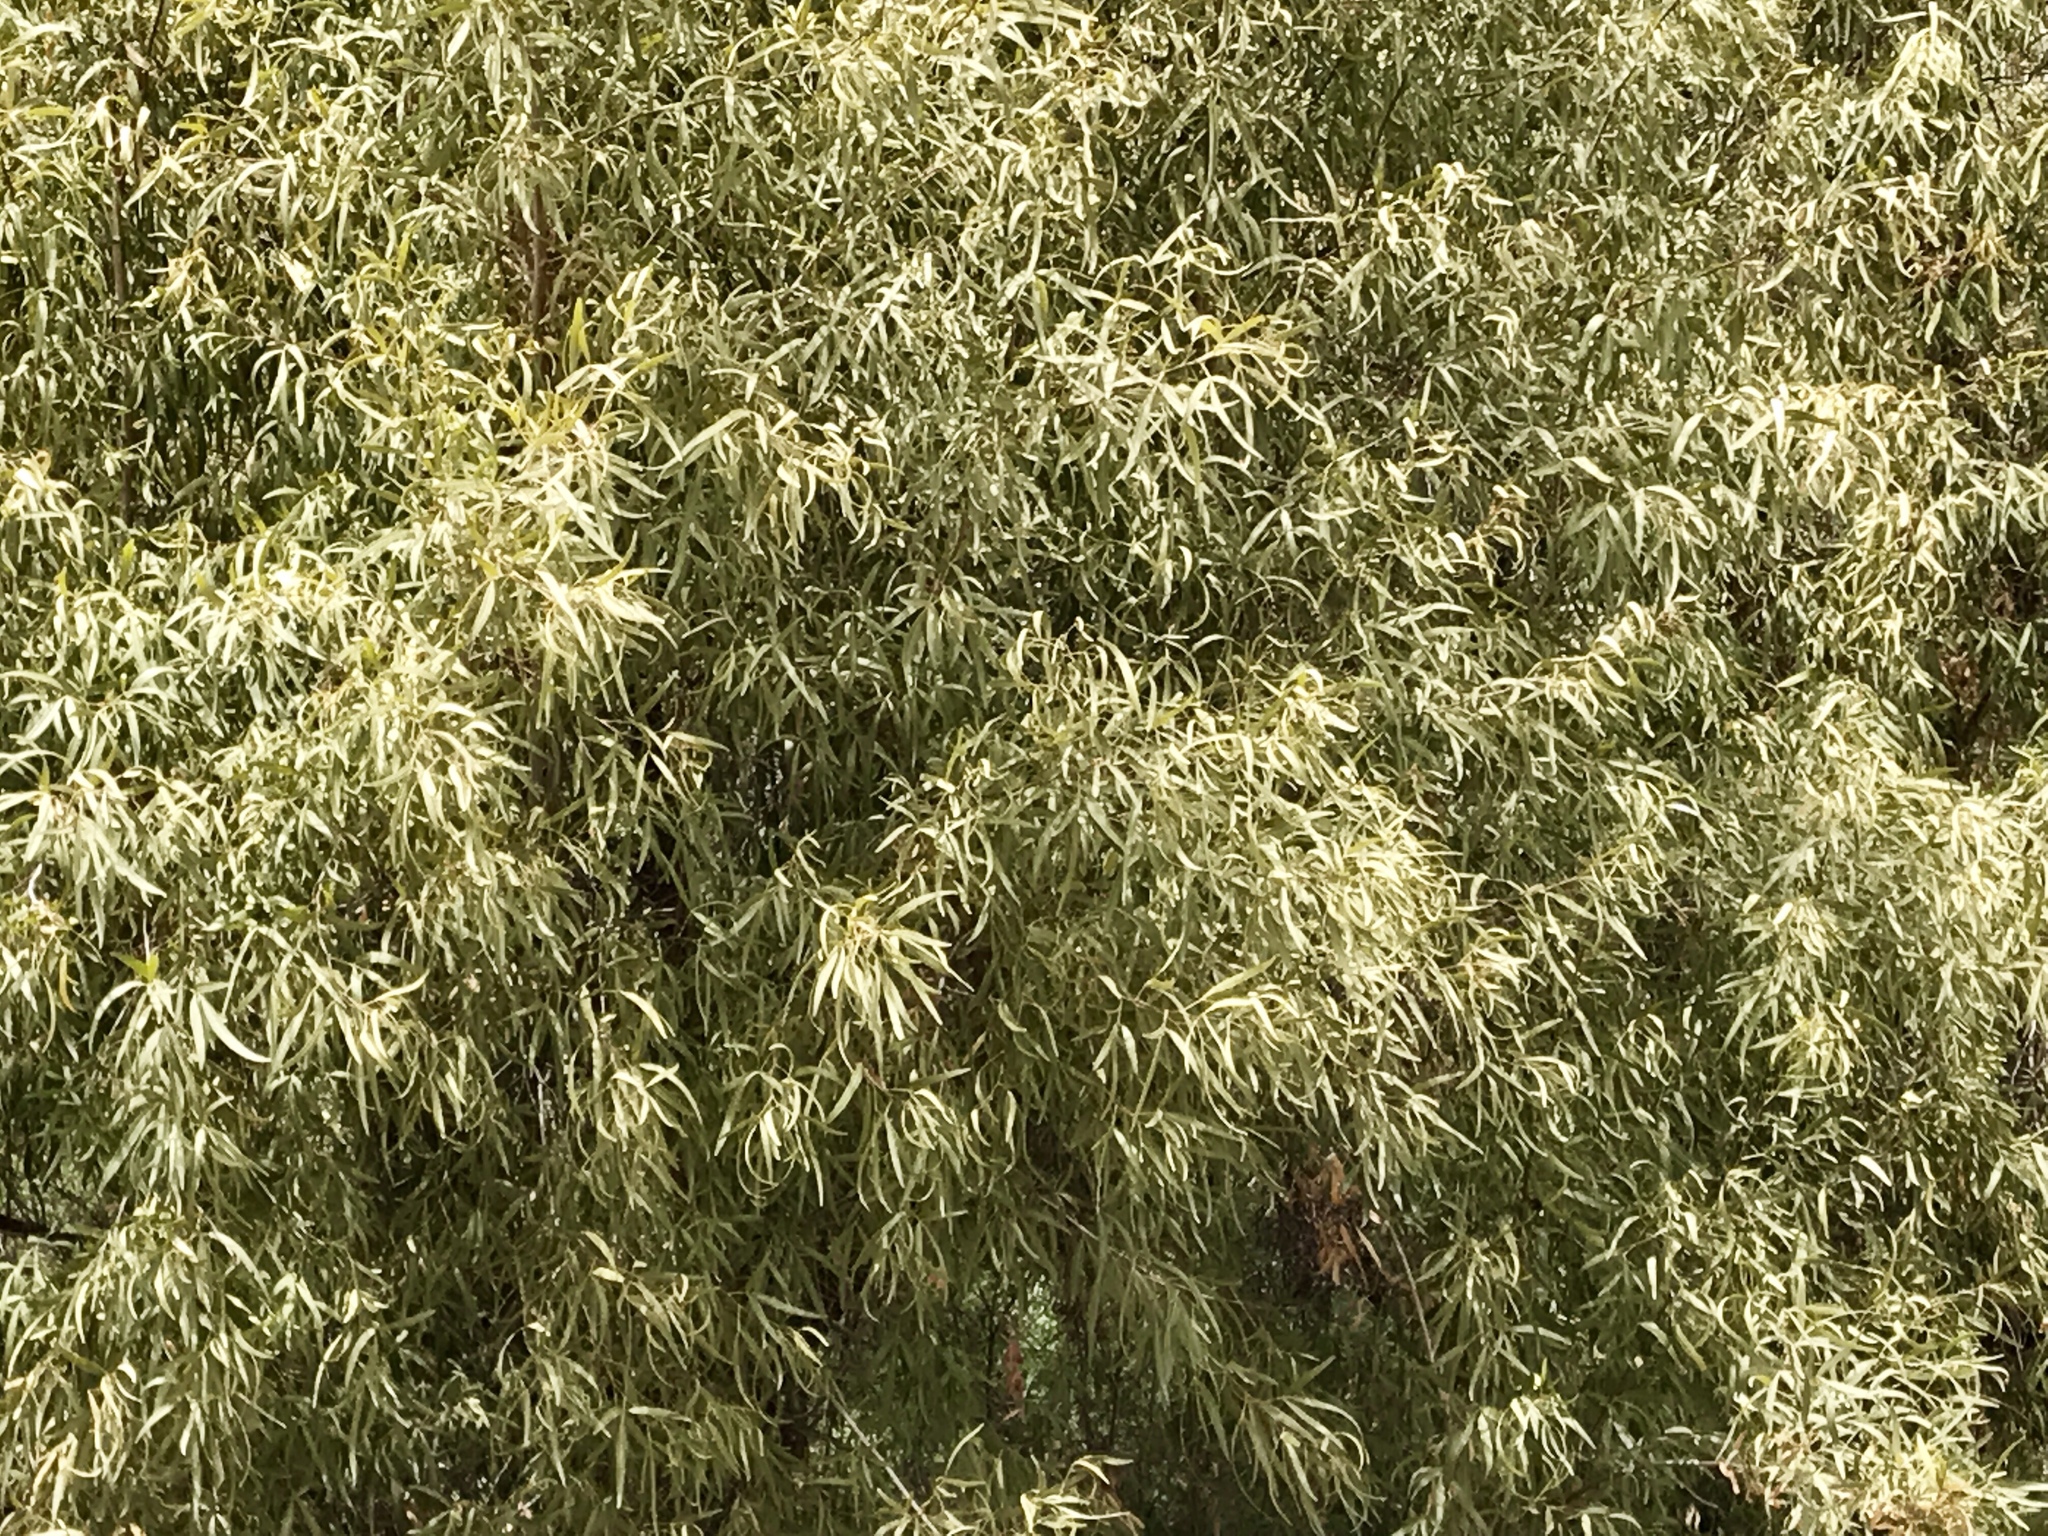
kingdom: Plantae
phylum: Tracheophyta
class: Magnoliopsida
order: Sapindales
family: Anacardiaceae
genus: Searsia
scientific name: Searsia lancea
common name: Cashew
